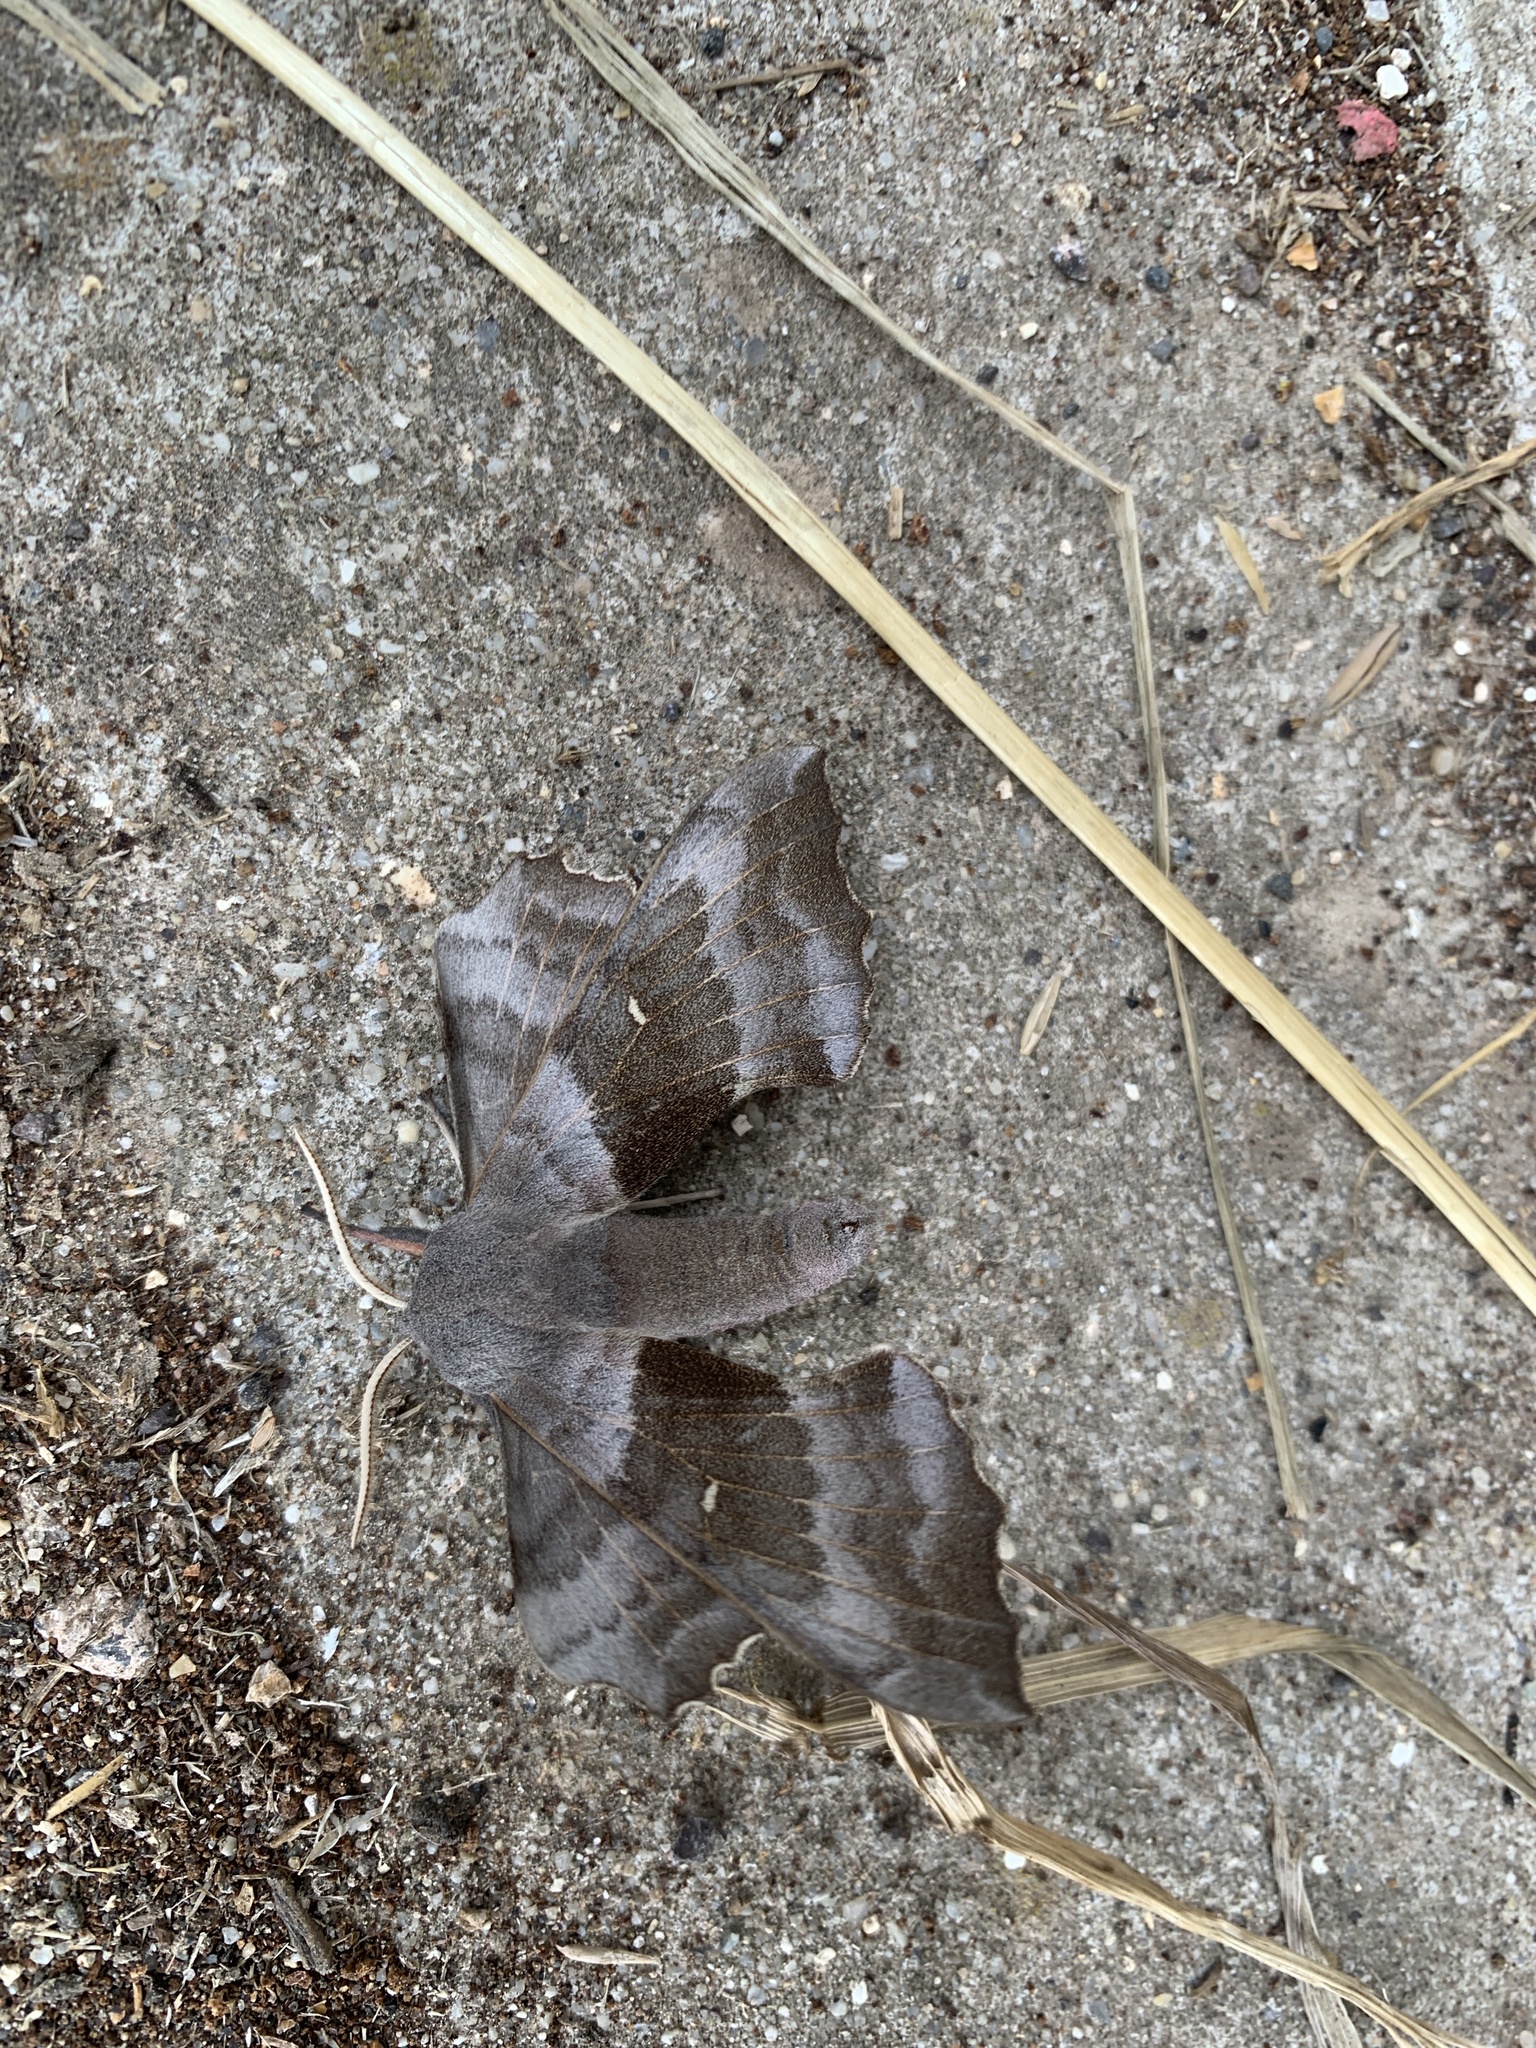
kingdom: Animalia
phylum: Arthropoda
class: Insecta
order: Lepidoptera
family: Sphingidae
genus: Laothoe
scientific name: Laothoe populi
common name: Poplar hawk-moth
